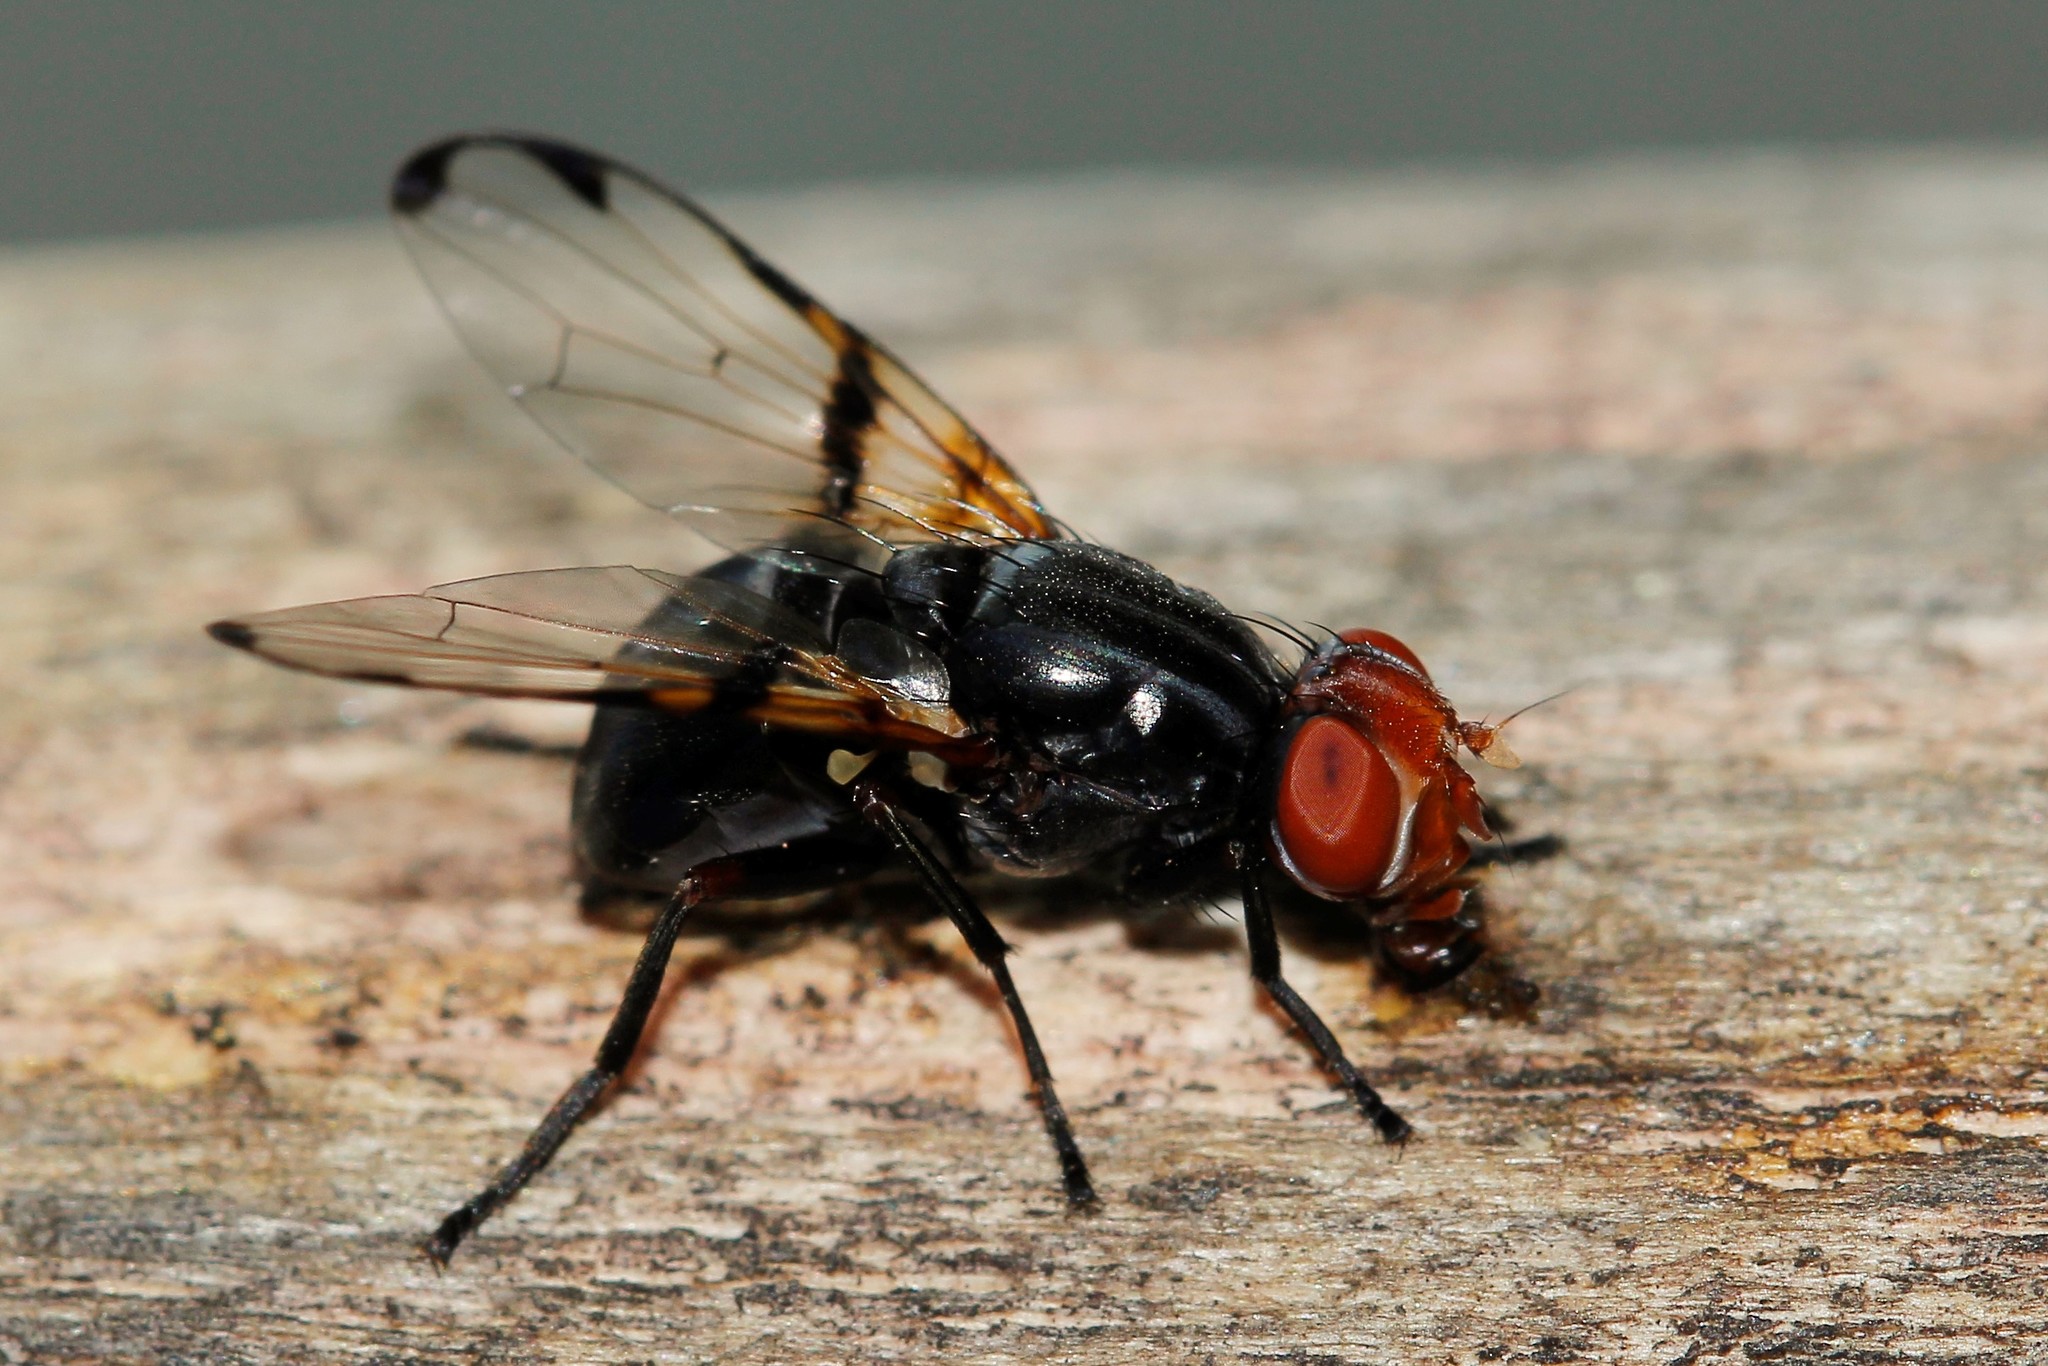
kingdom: Animalia
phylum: Arthropoda
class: Insecta
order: Diptera
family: Ulidiidae
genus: Ceroxys
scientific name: Ceroxys munda
